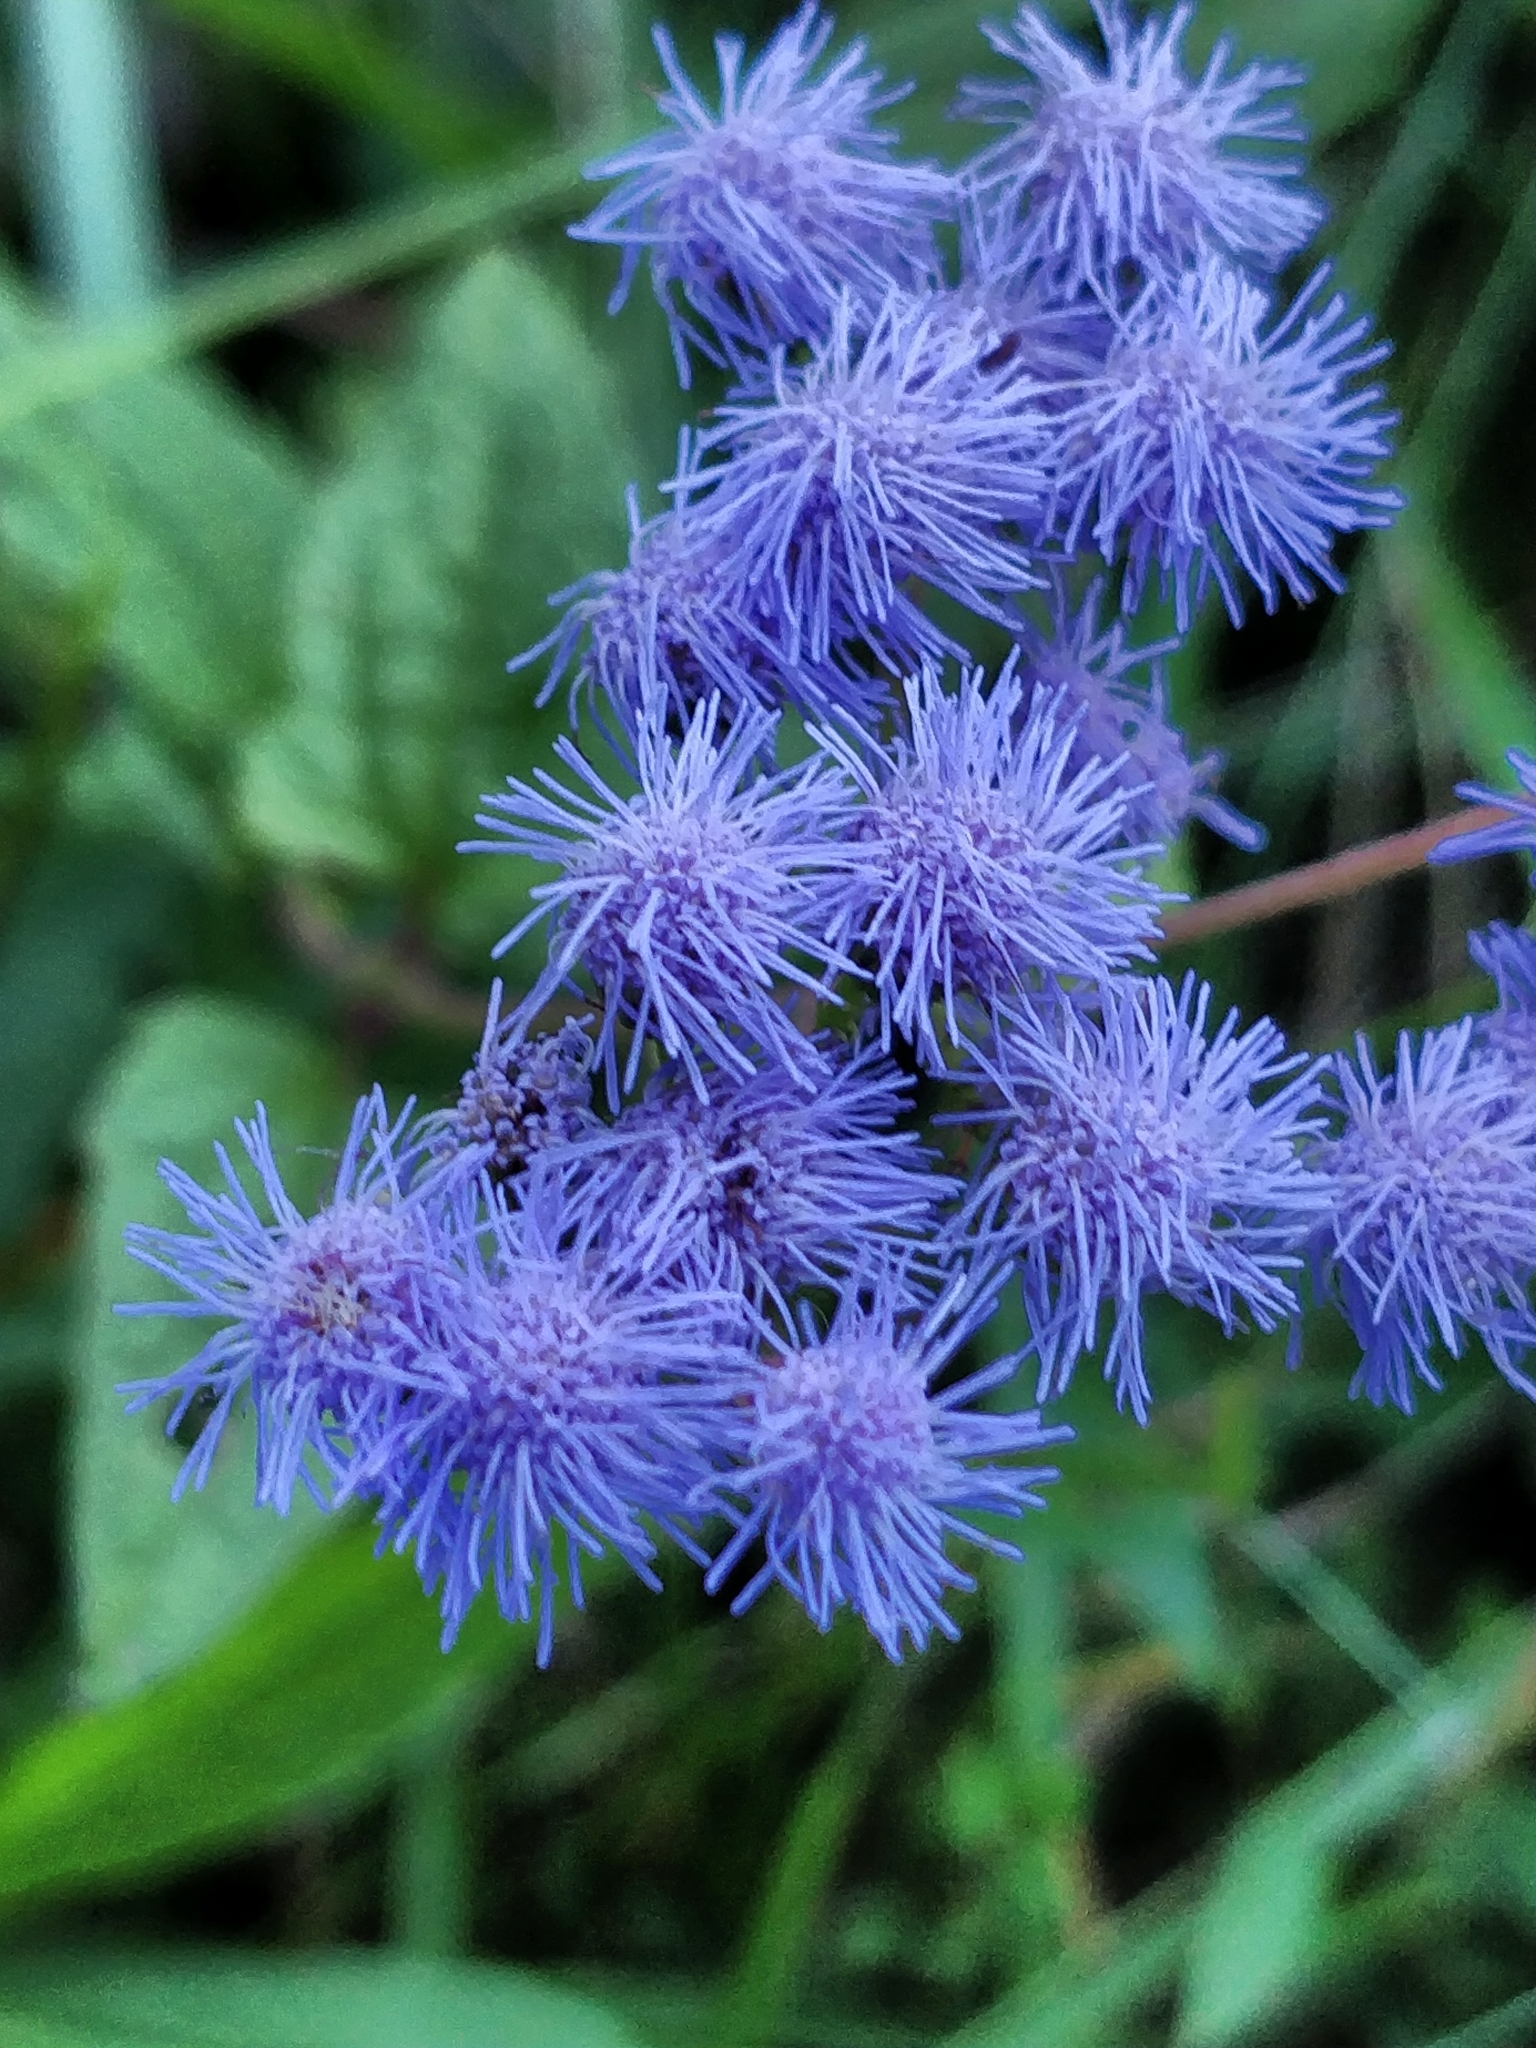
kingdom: Plantae
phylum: Tracheophyta
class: Magnoliopsida
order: Asterales
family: Asteraceae
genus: Conoclinium
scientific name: Conoclinium coelestinum
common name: Blue mistflower
